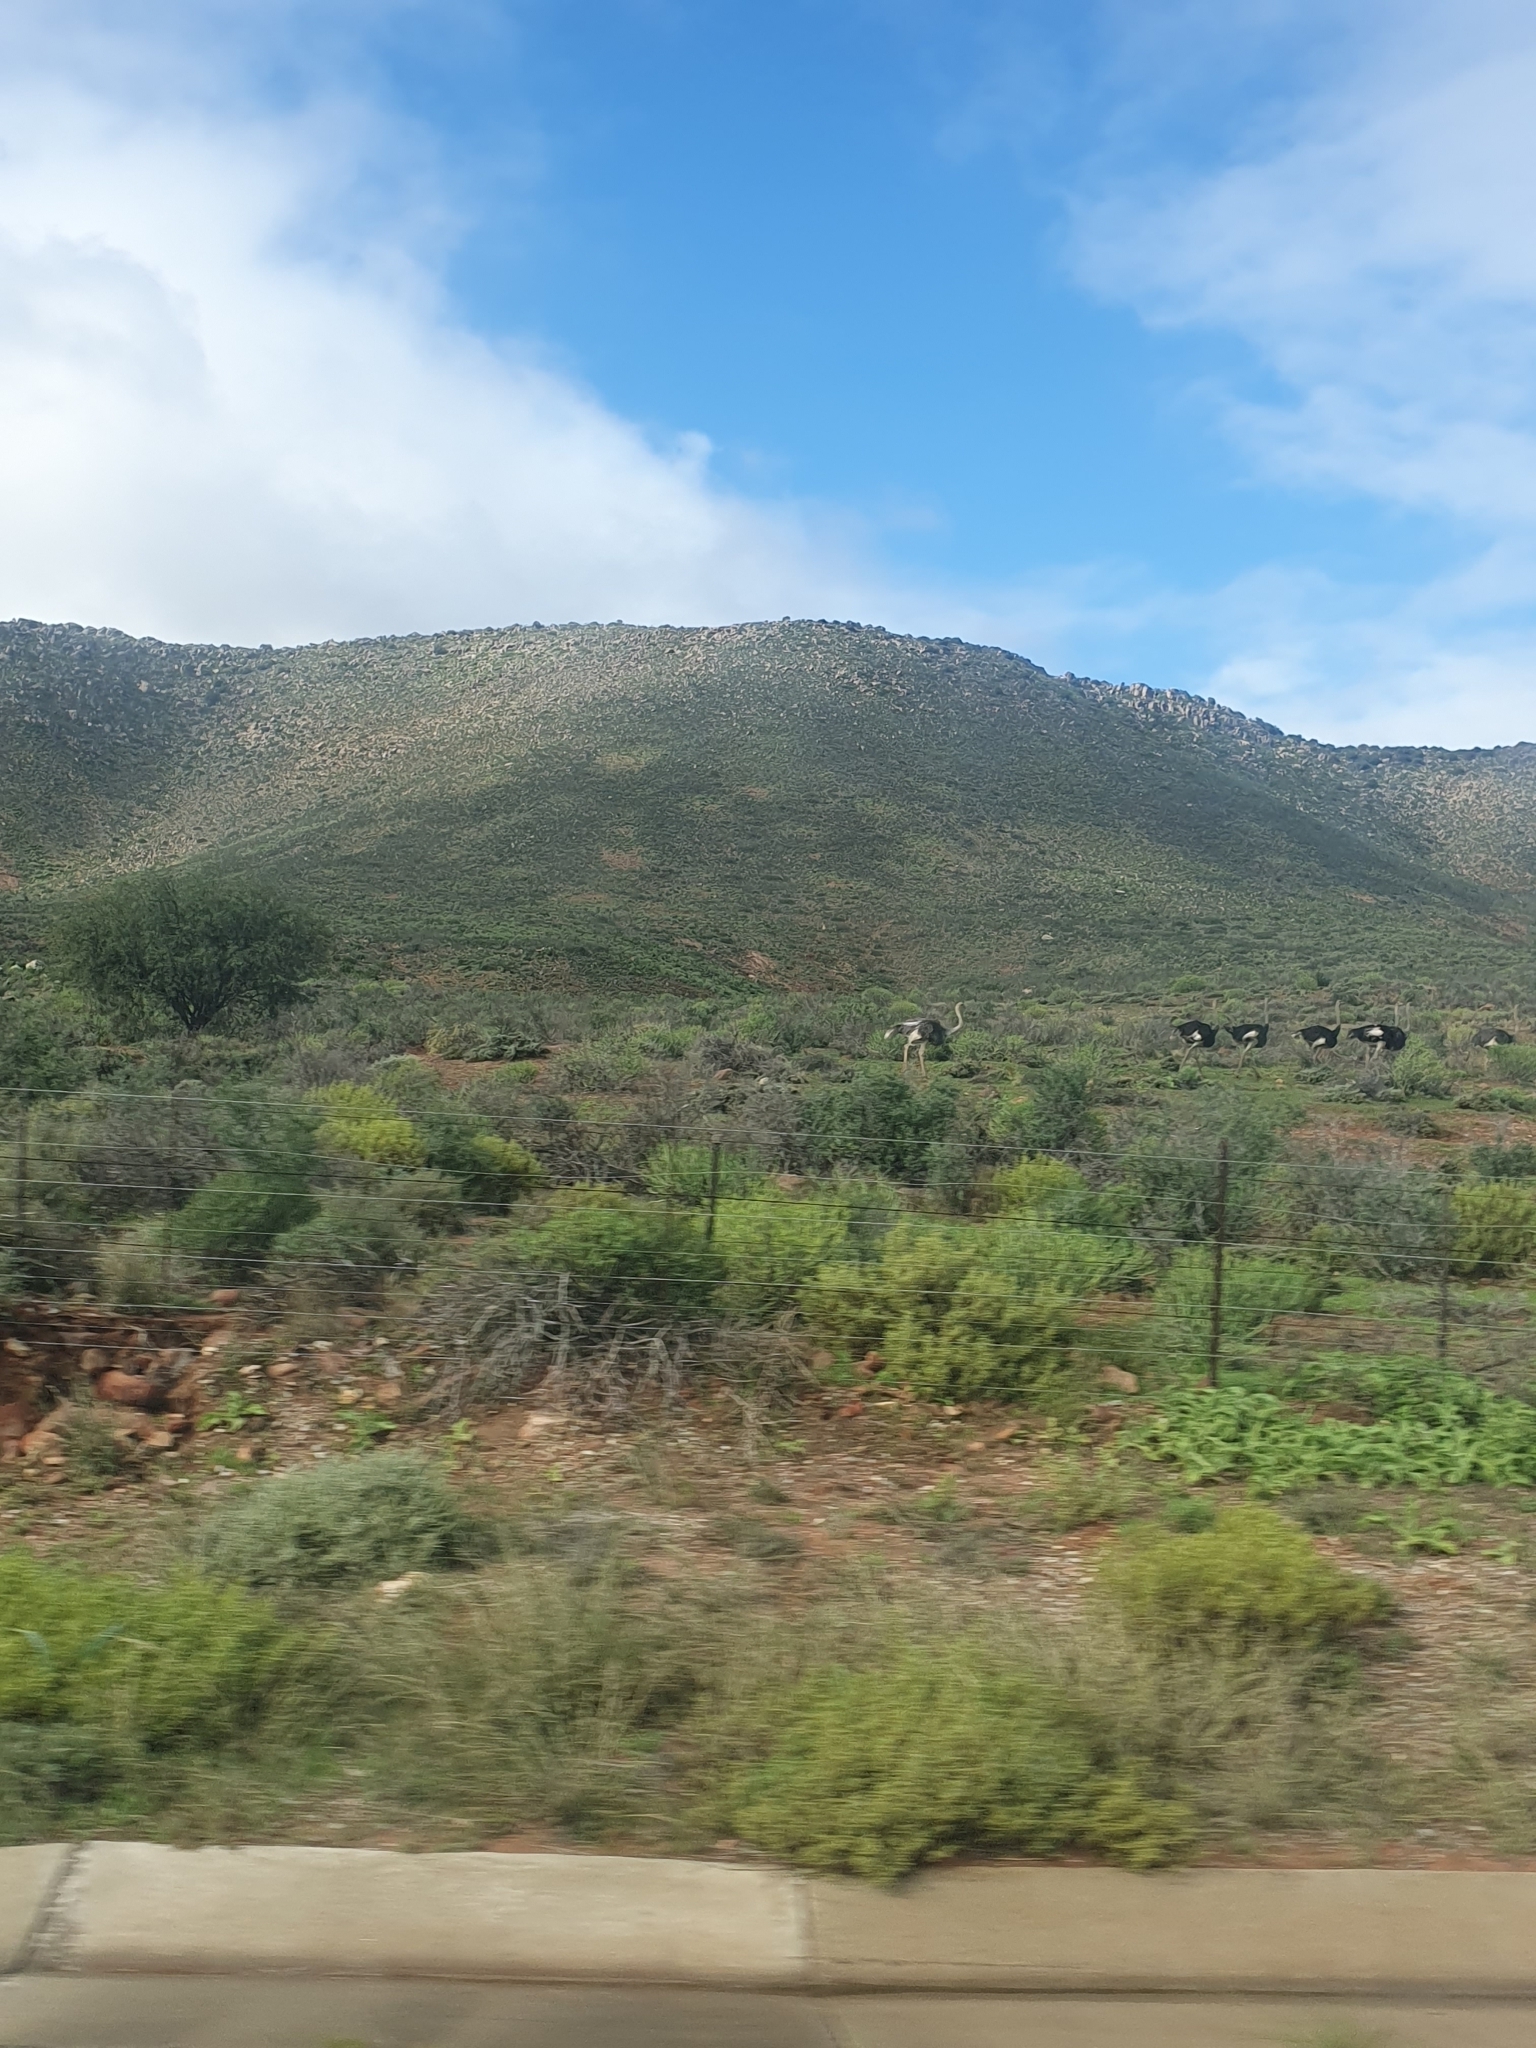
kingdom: Animalia
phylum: Chordata
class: Aves
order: Struthioniformes
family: Struthionidae
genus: Struthio
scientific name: Struthio camelus
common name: Common ostrich
